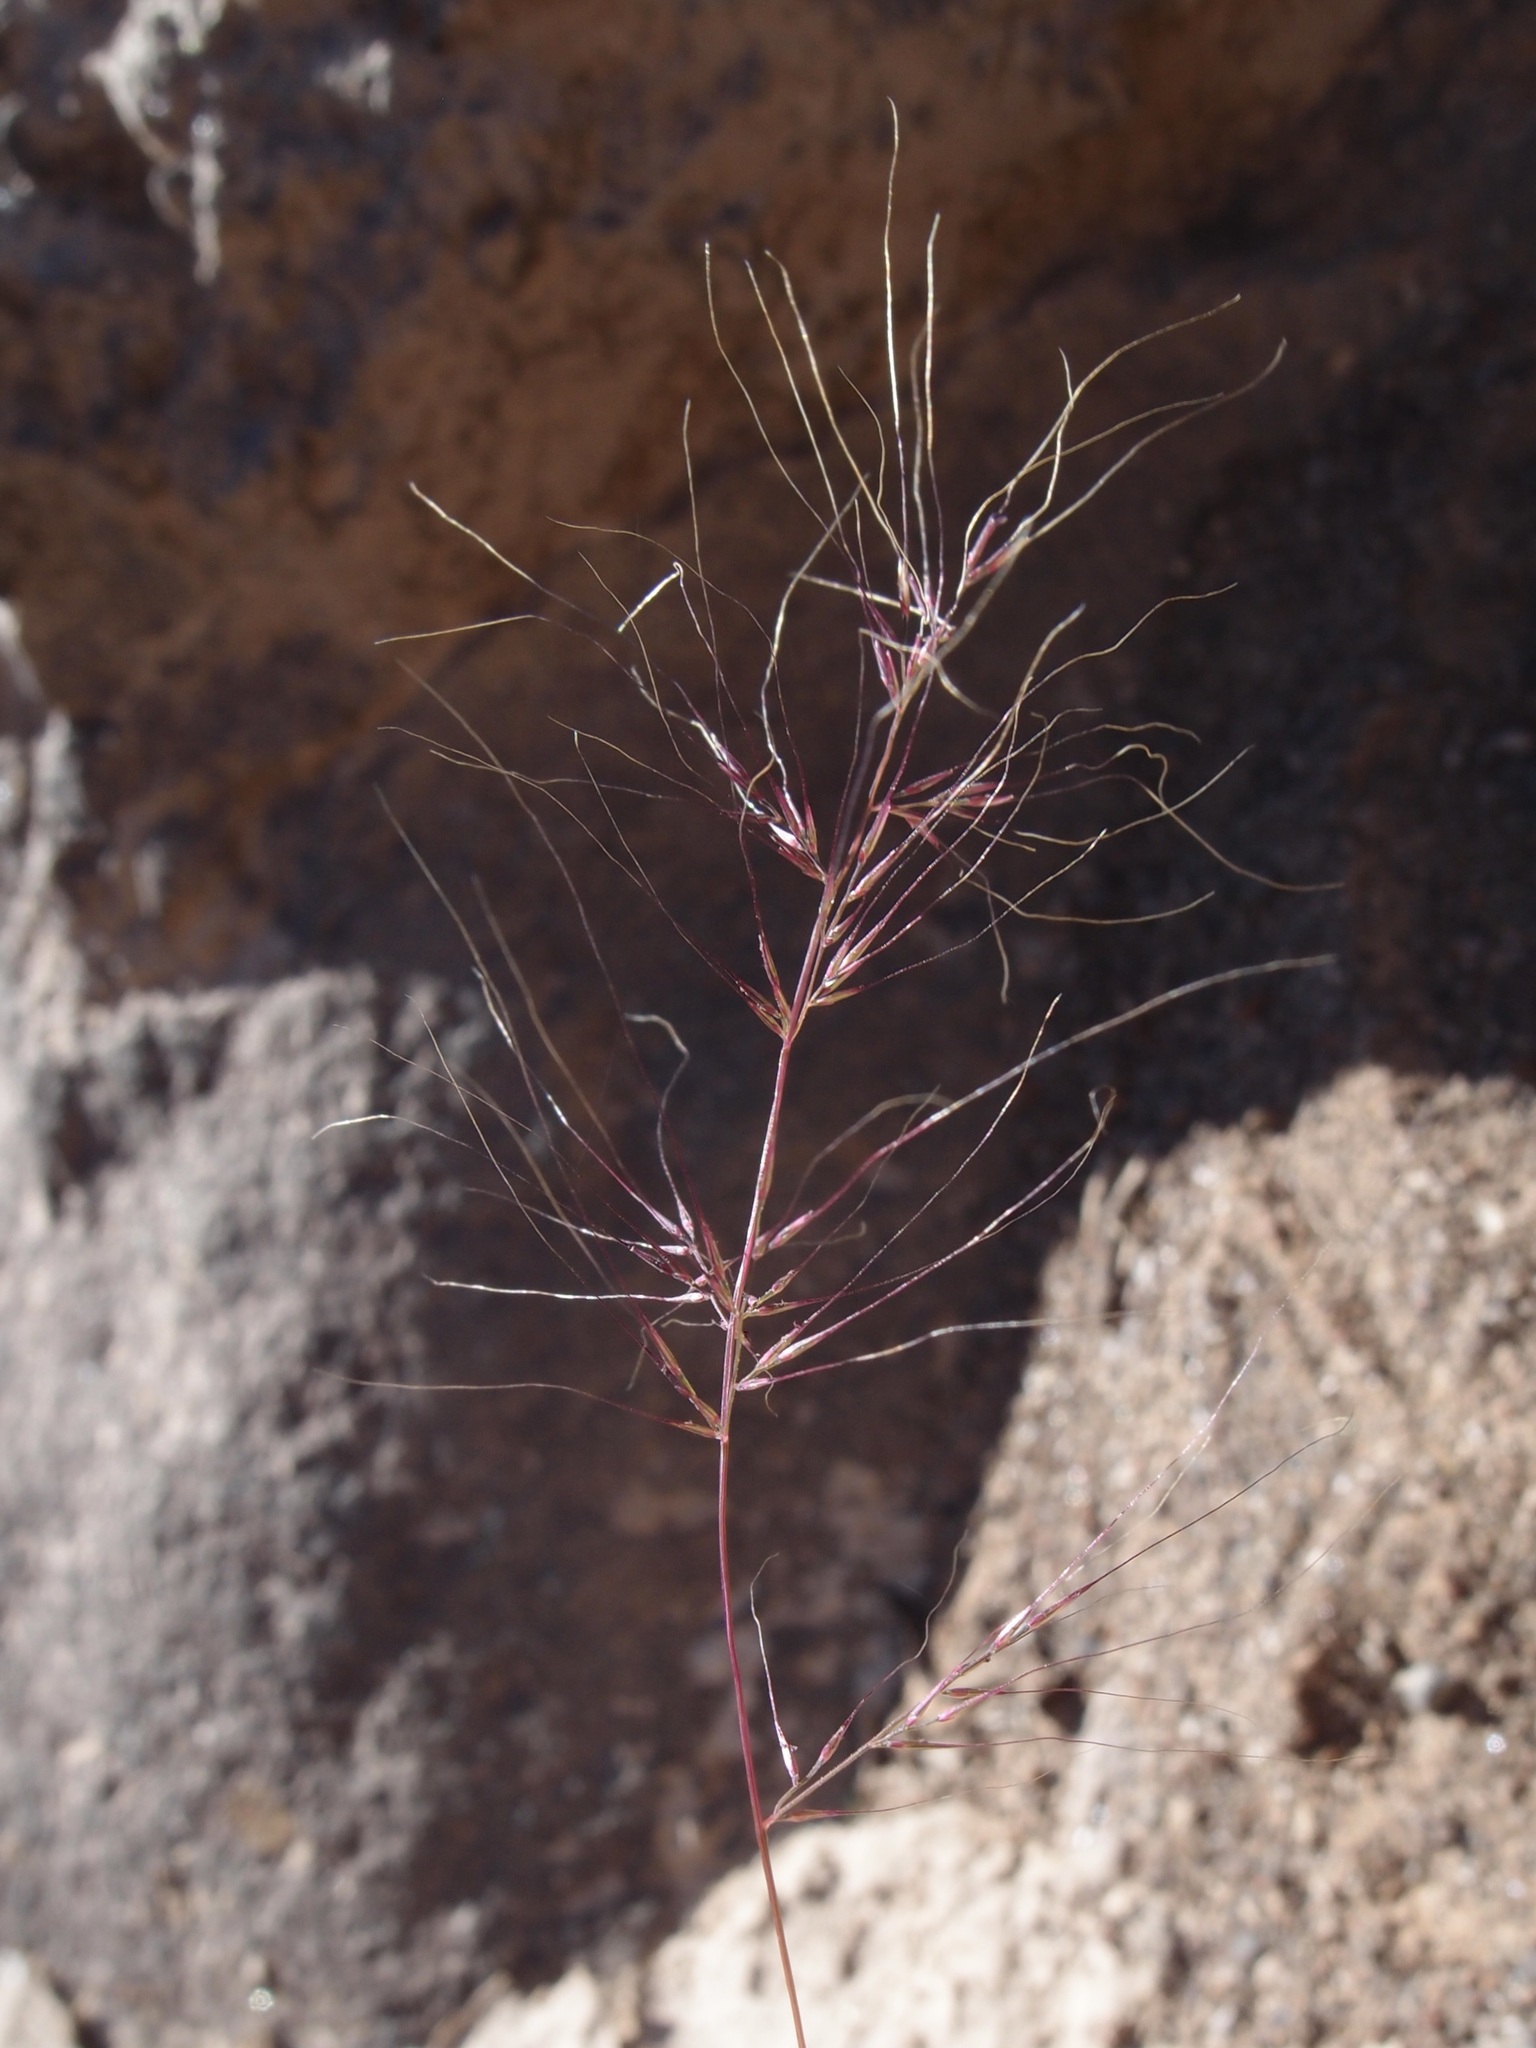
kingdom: Plantae
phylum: Tracheophyta
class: Liliopsida
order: Poales
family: Poaceae
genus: Muhlenbergia
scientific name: Muhlenbergia microsperma
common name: Littleseed muhly
